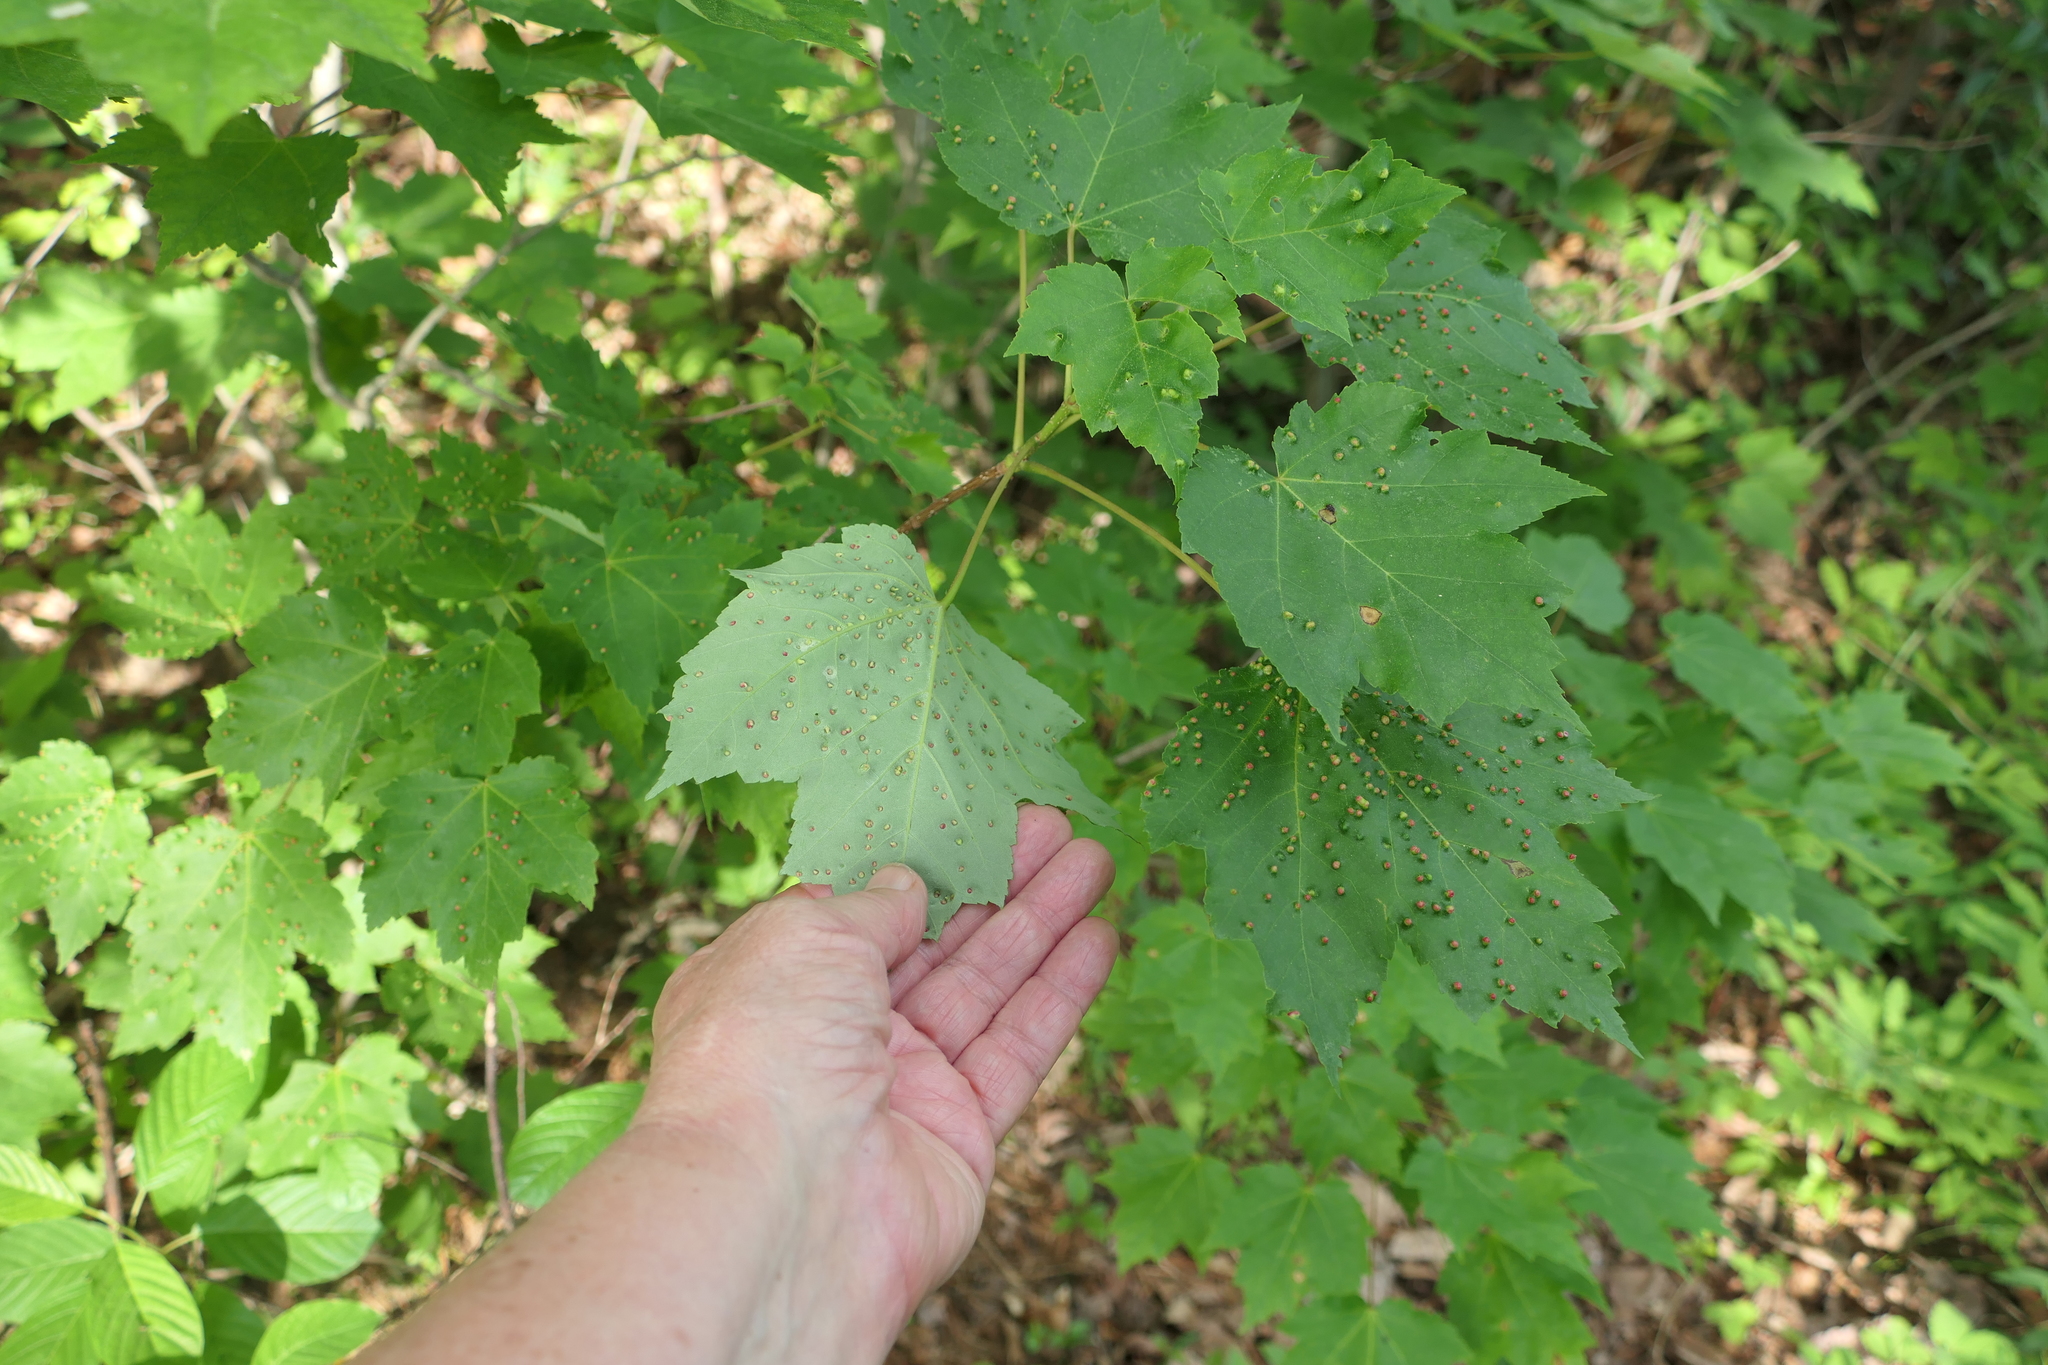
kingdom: Animalia
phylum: Arthropoda
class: Arachnida
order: Trombidiformes
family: Eriophyidae
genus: Vasates
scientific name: Vasates quadripedes
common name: Maple bladder gall mite
